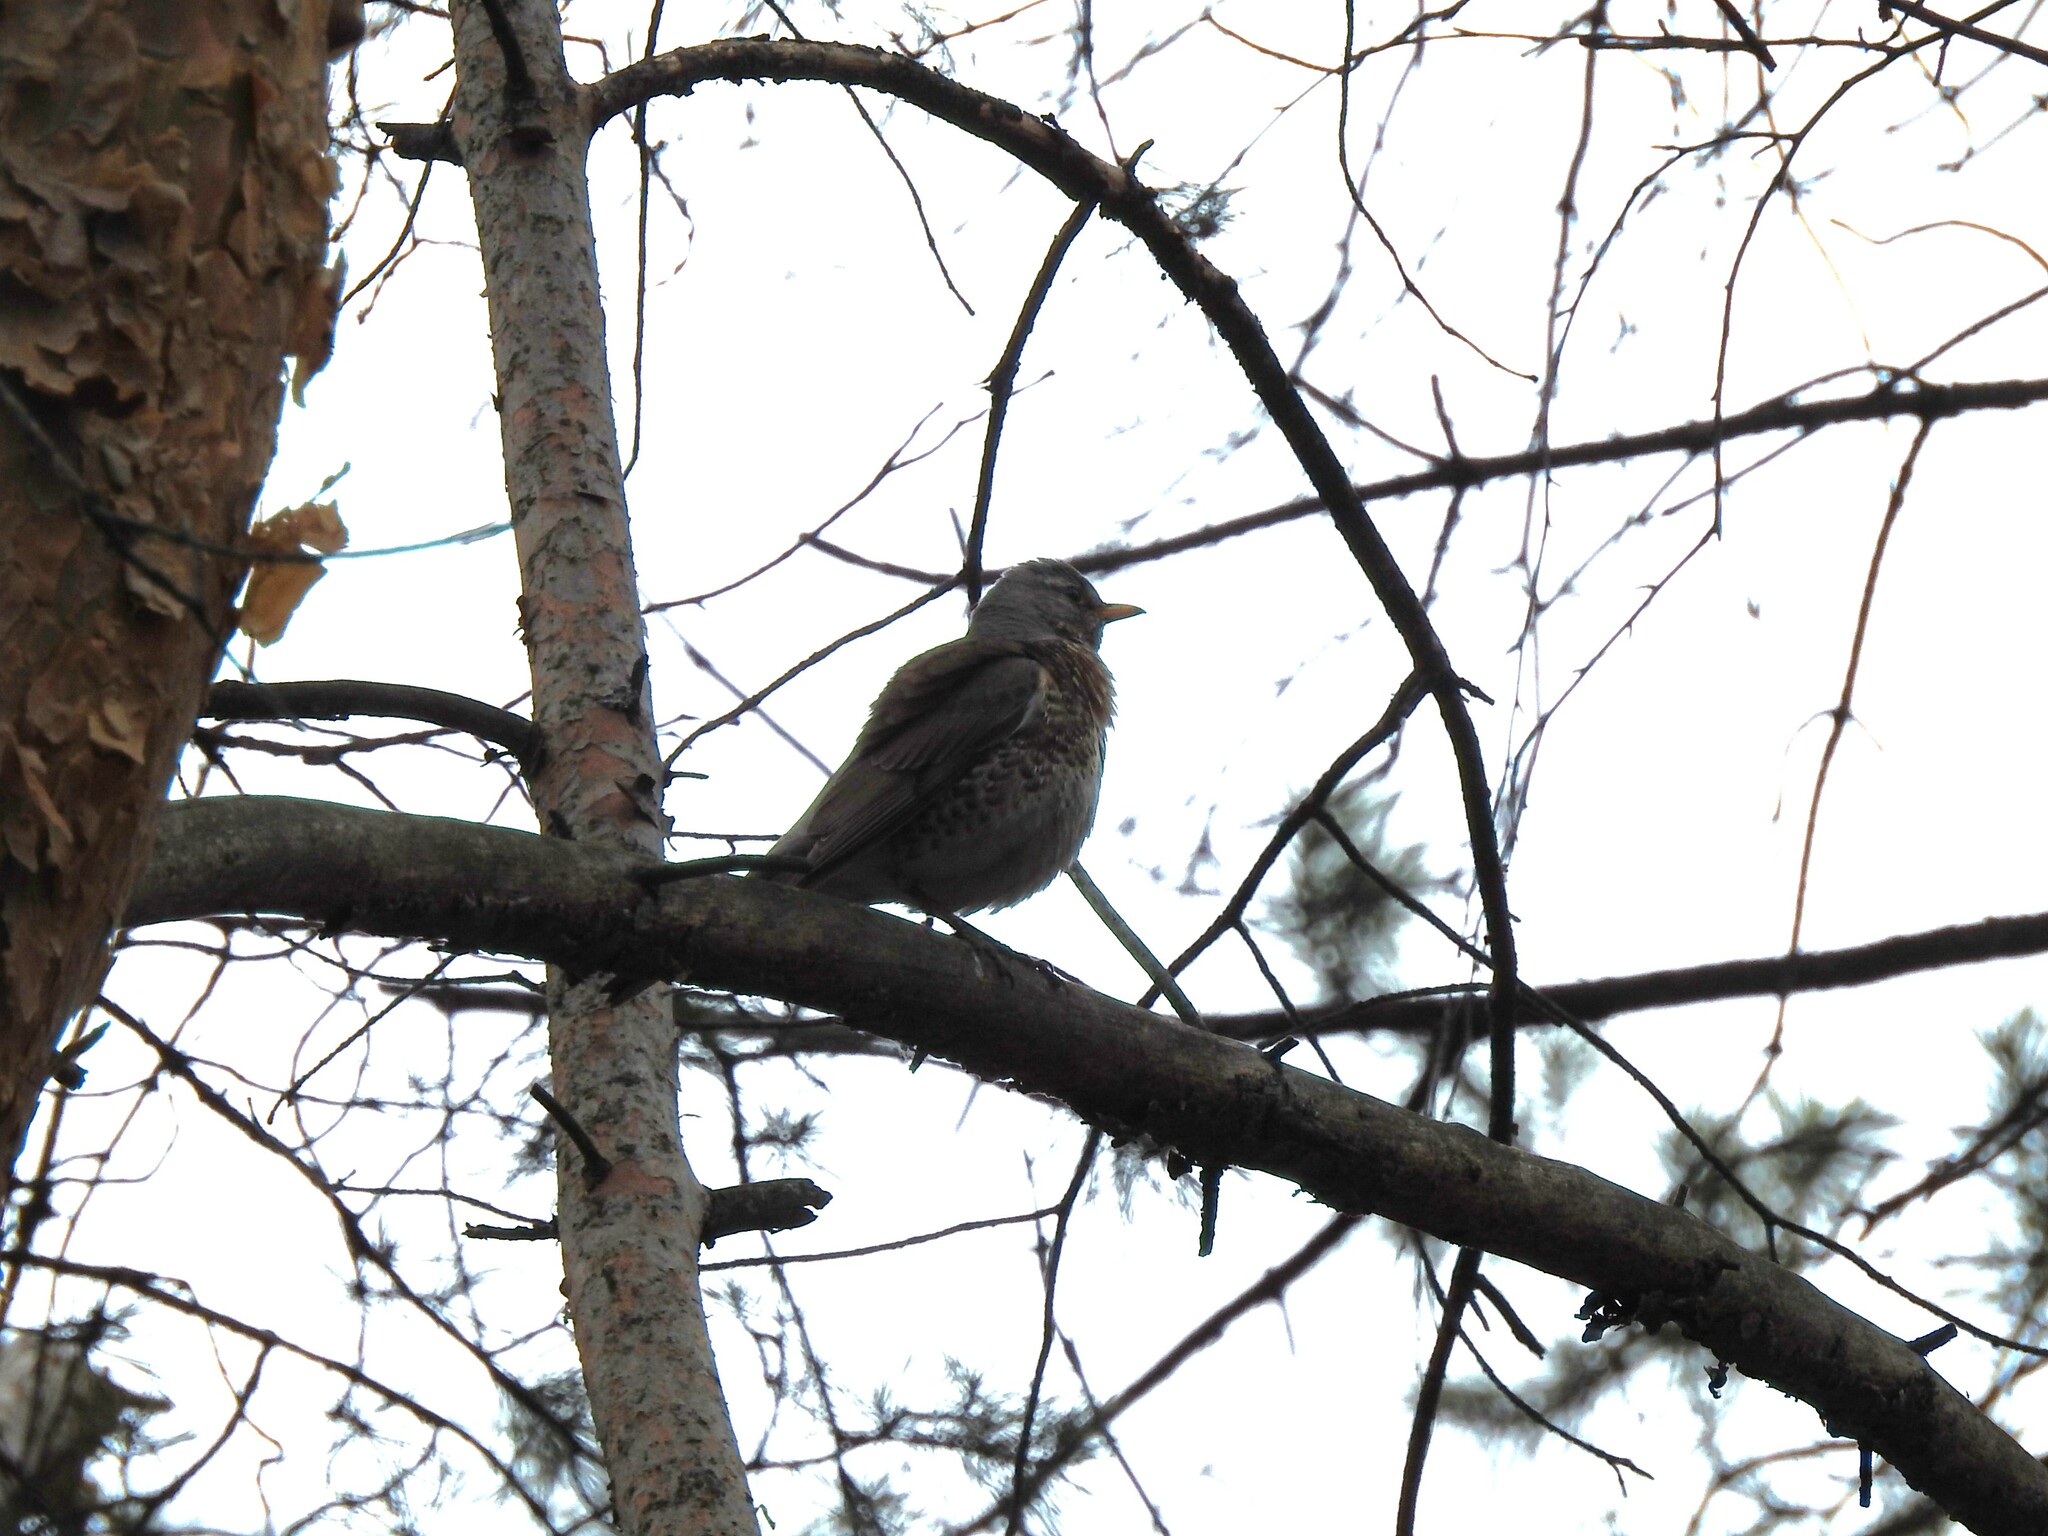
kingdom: Animalia
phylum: Chordata
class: Aves
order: Passeriformes
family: Turdidae
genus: Turdus
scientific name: Turdus pilaris
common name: Fieldfare
